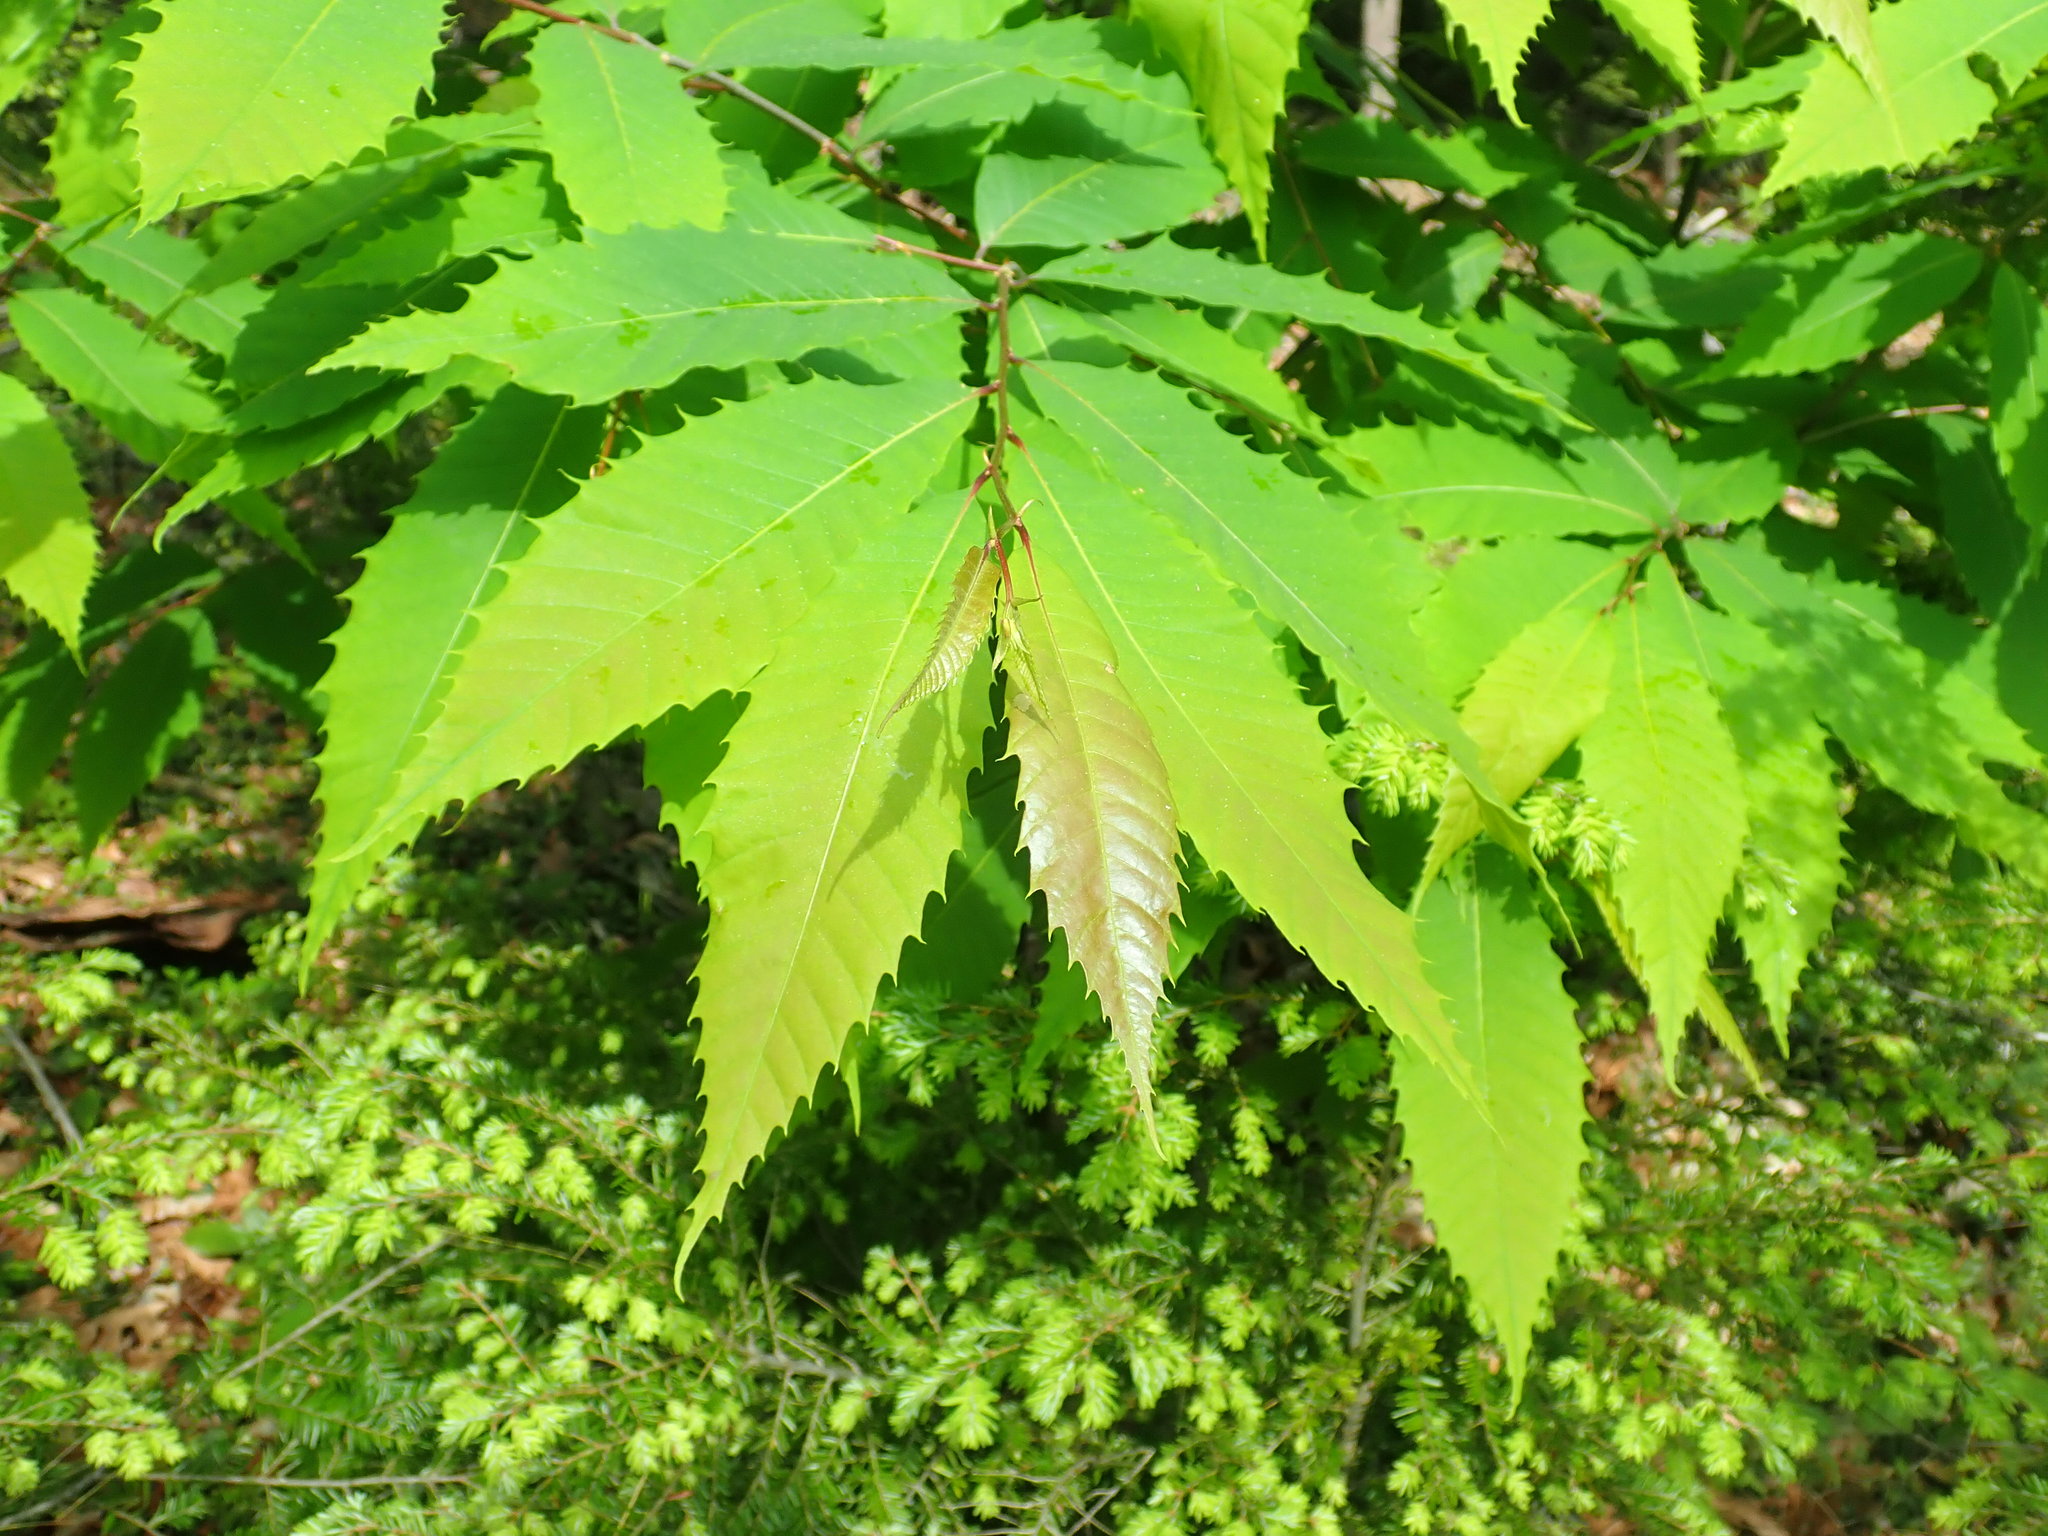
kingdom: Plantae
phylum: Tracheophyta
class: Magnoliopsida
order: Fagales
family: Fagaceae
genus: Castanea
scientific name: Castanea dentata
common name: American chestnut
